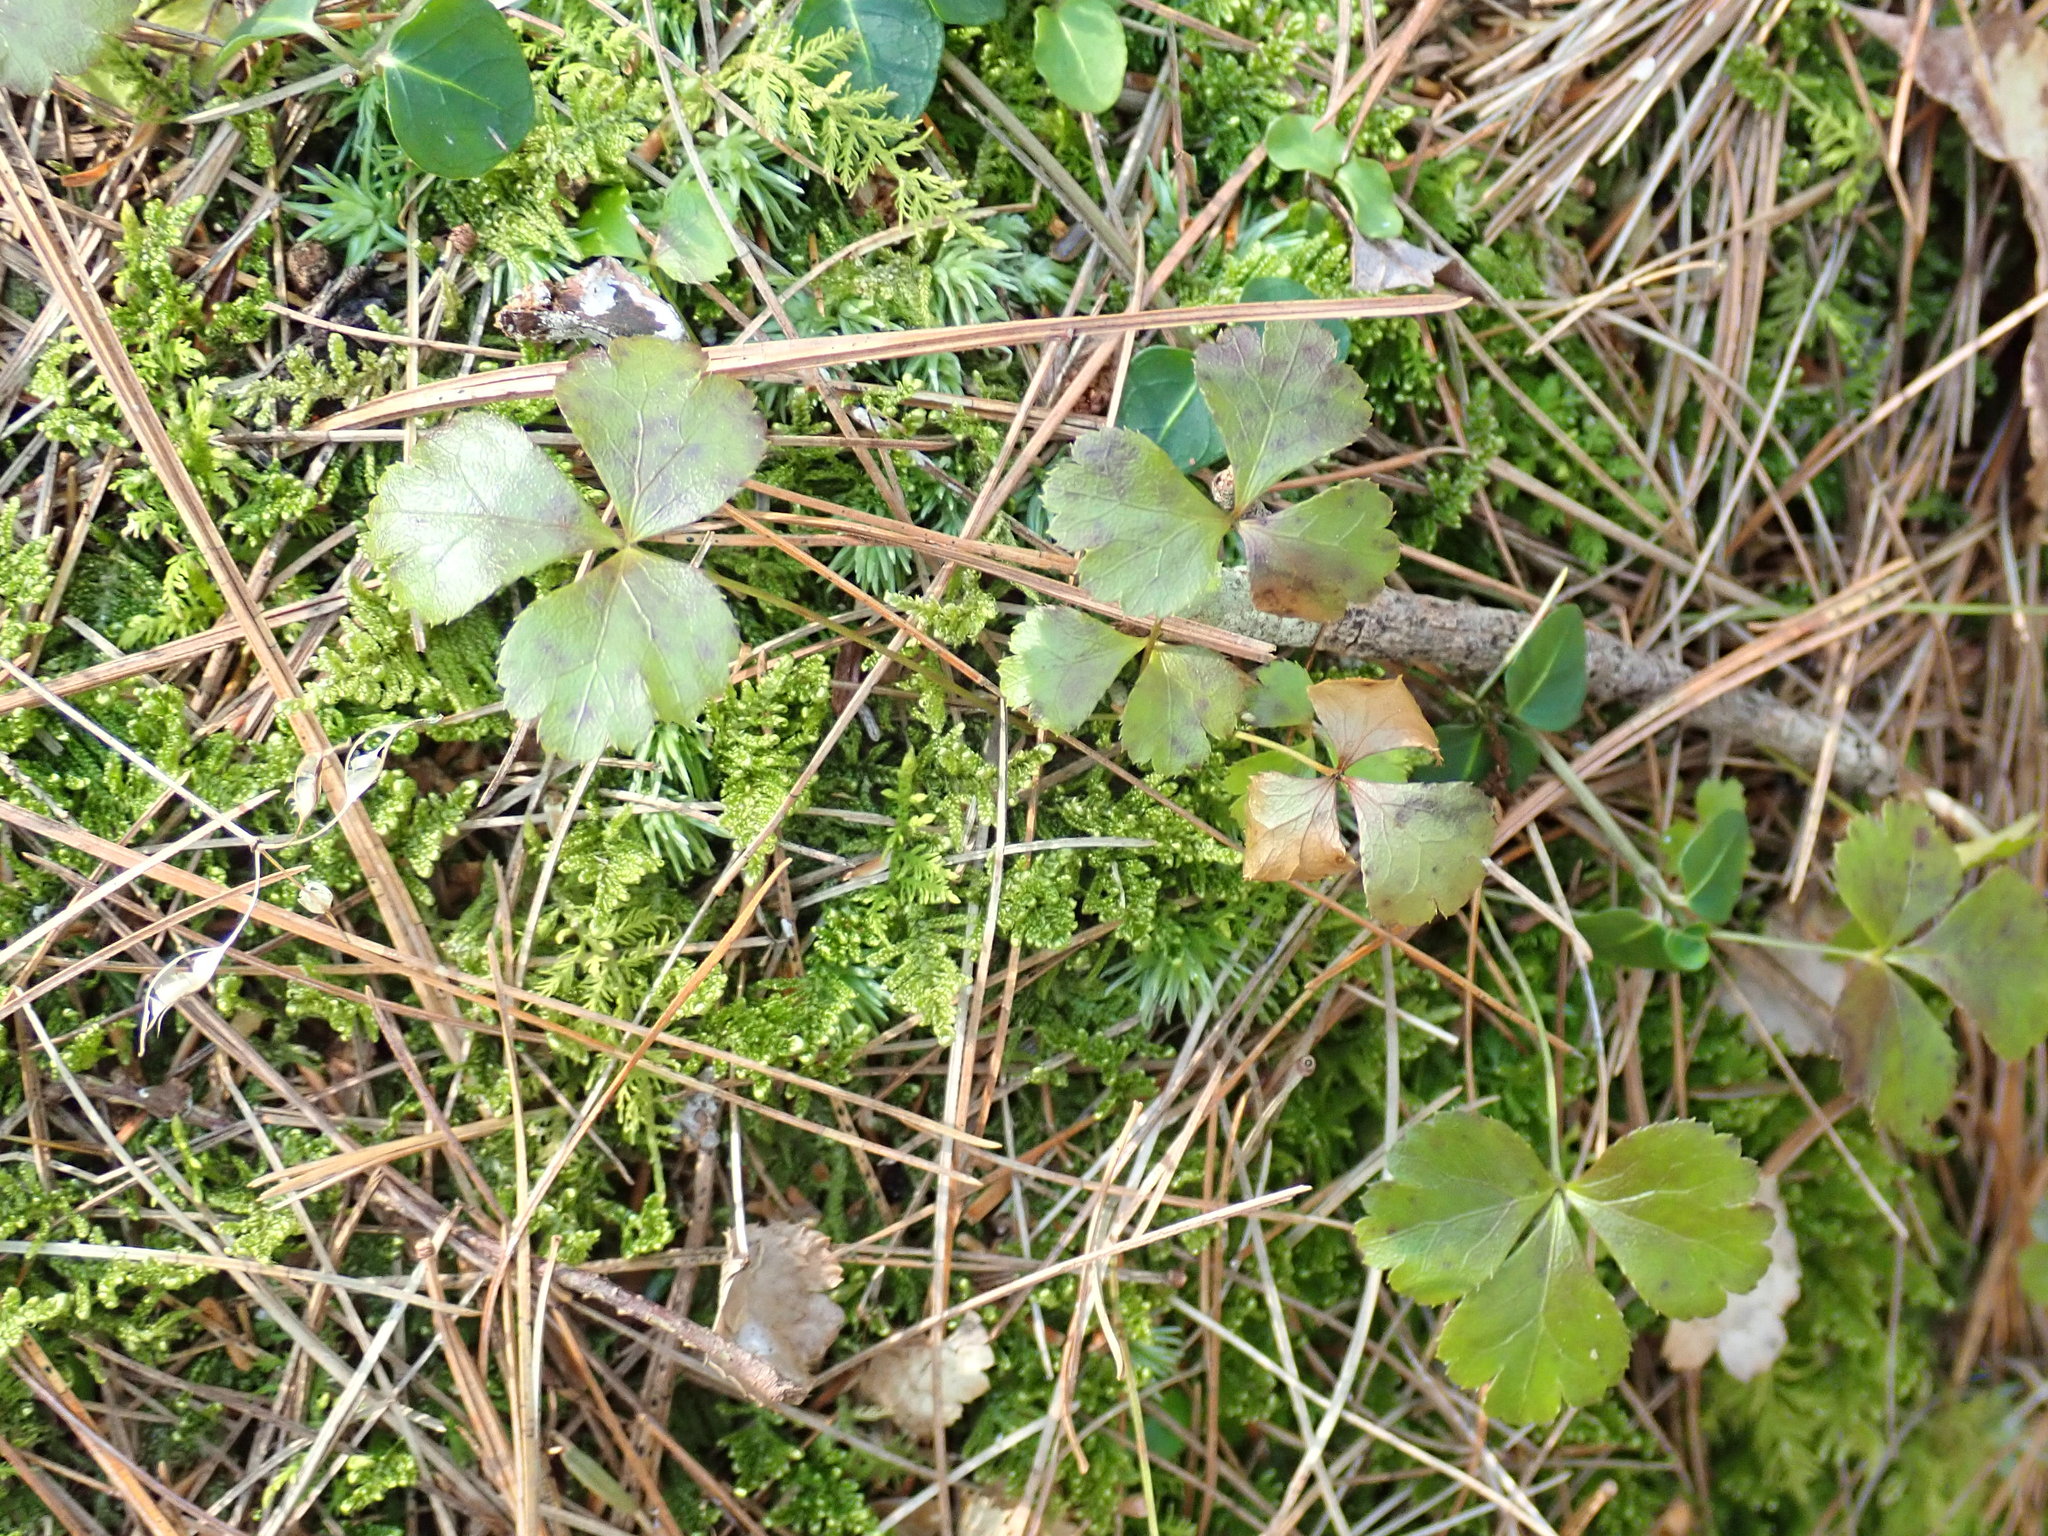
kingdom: Plantae
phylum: Tracheophyta
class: Magnoliopsida
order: Ranunculales
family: Ranunculaceae
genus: Coptis
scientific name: Coptis trifolia
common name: Canker-root
